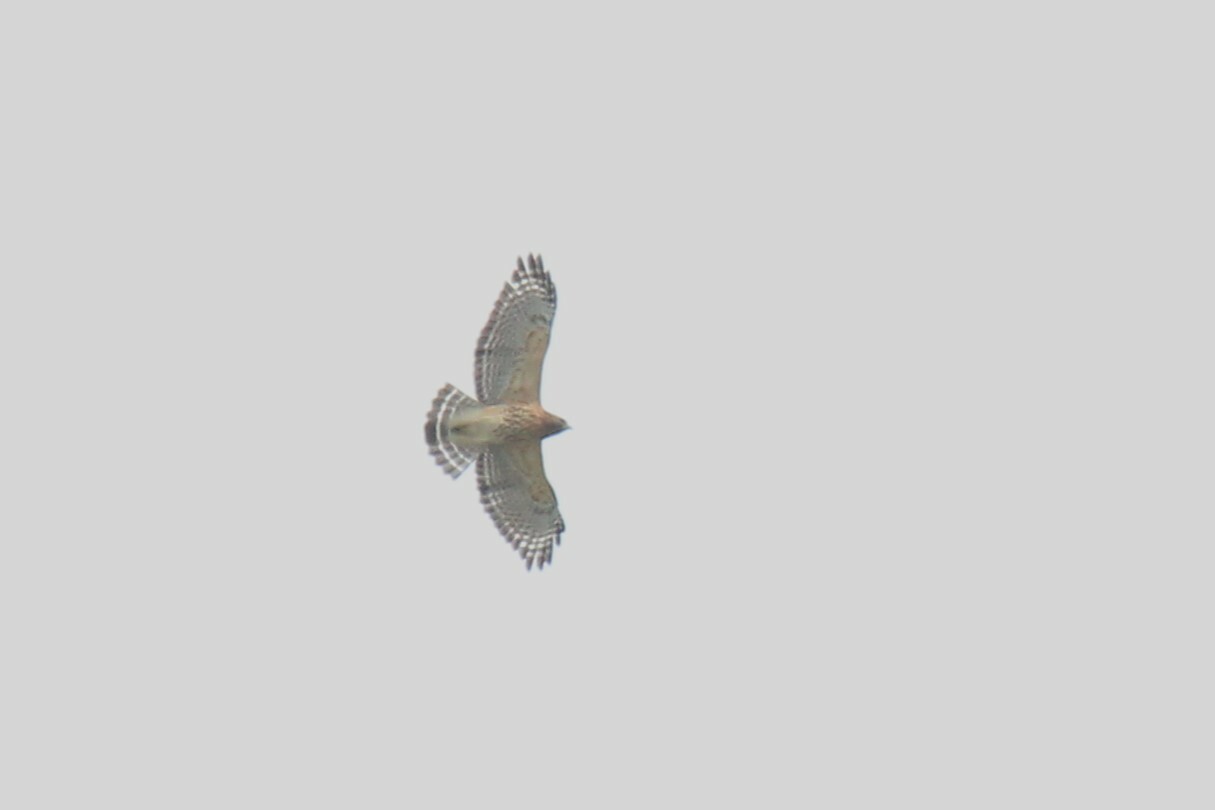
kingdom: Animalia
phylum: Chordata
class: Aves
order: Accipitriformes
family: Accipitridae
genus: Buteo
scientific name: Buteo lineatus
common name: Red-shouldered hawk
